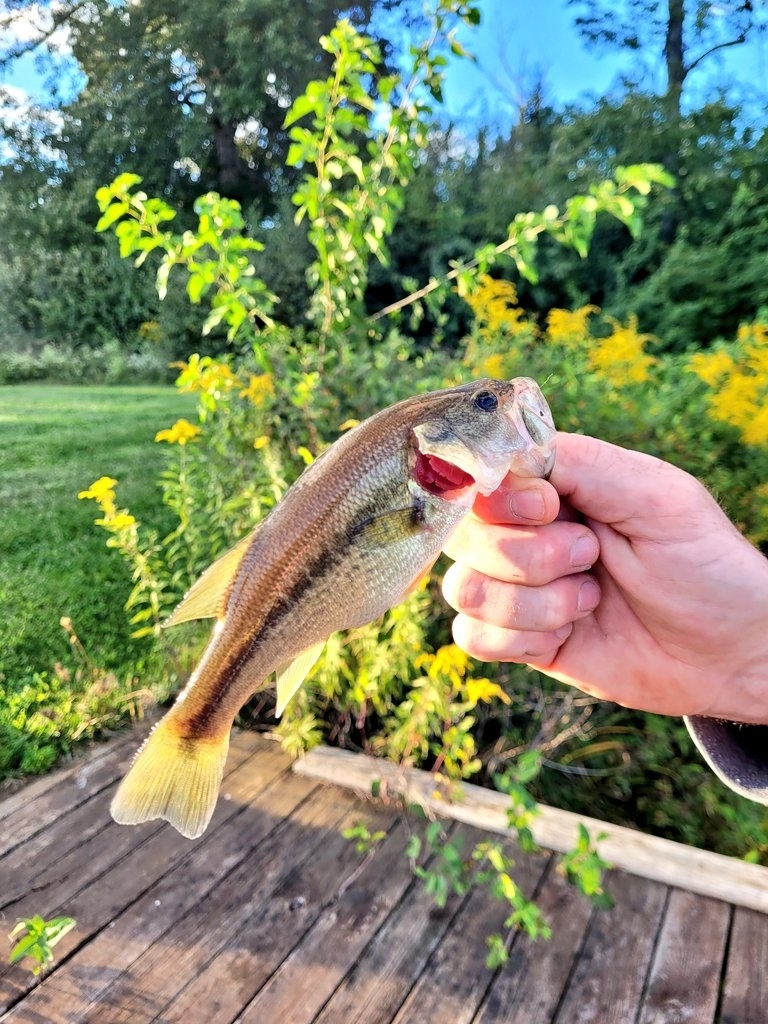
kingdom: Animalia
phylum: Chordata
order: Perciformes
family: Centrarchidae
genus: Micropterus
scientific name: Micropterus
